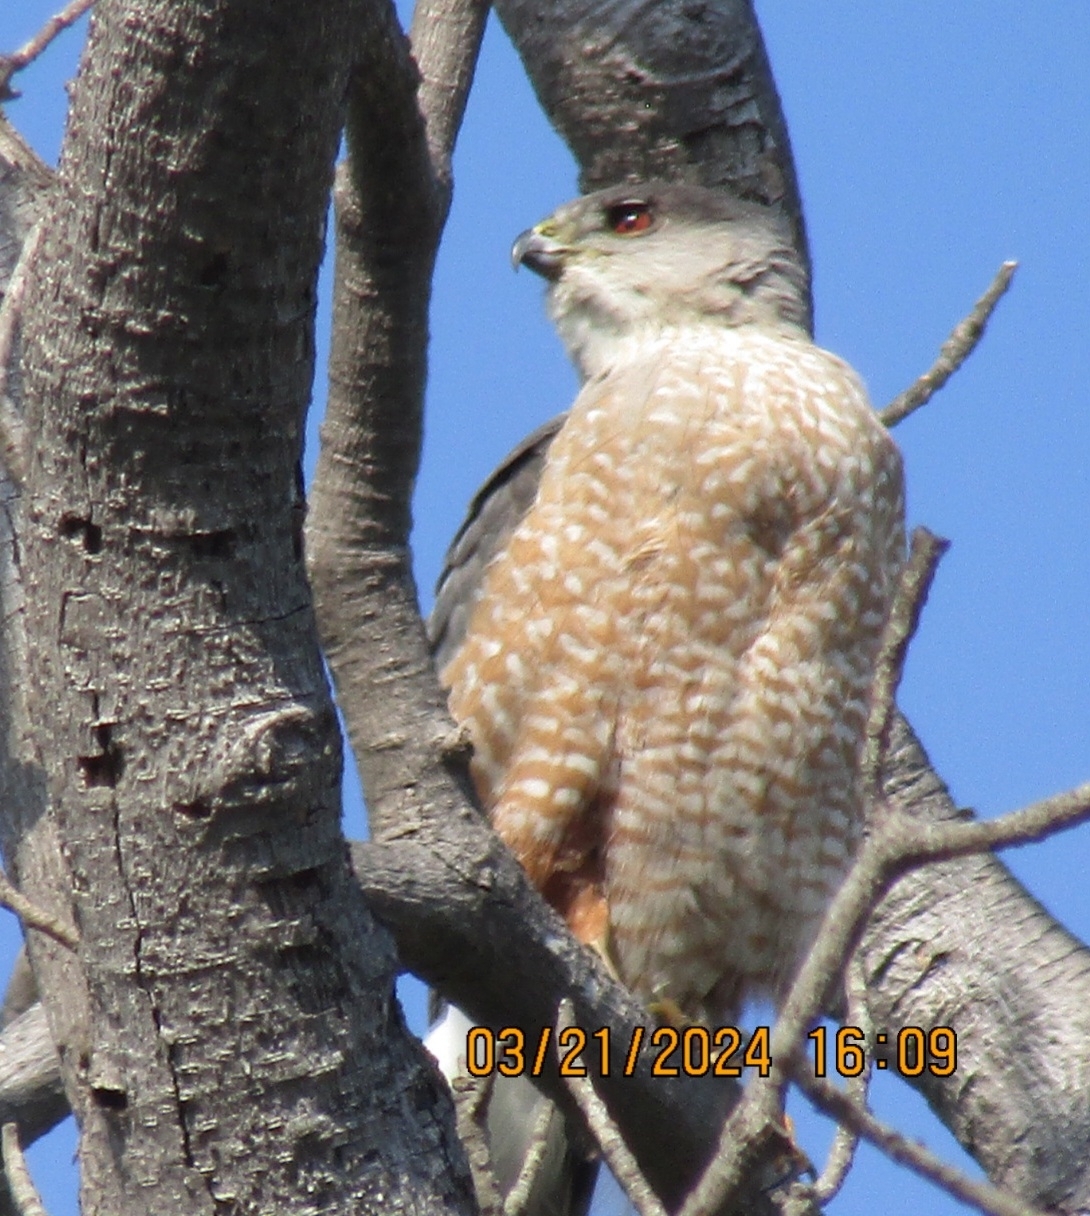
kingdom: Animalia
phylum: Chordata
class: Aves
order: Accipitriformes
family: Accipitridae
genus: Accipiter
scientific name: Accipiter cooperii
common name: Cooper's hawk
